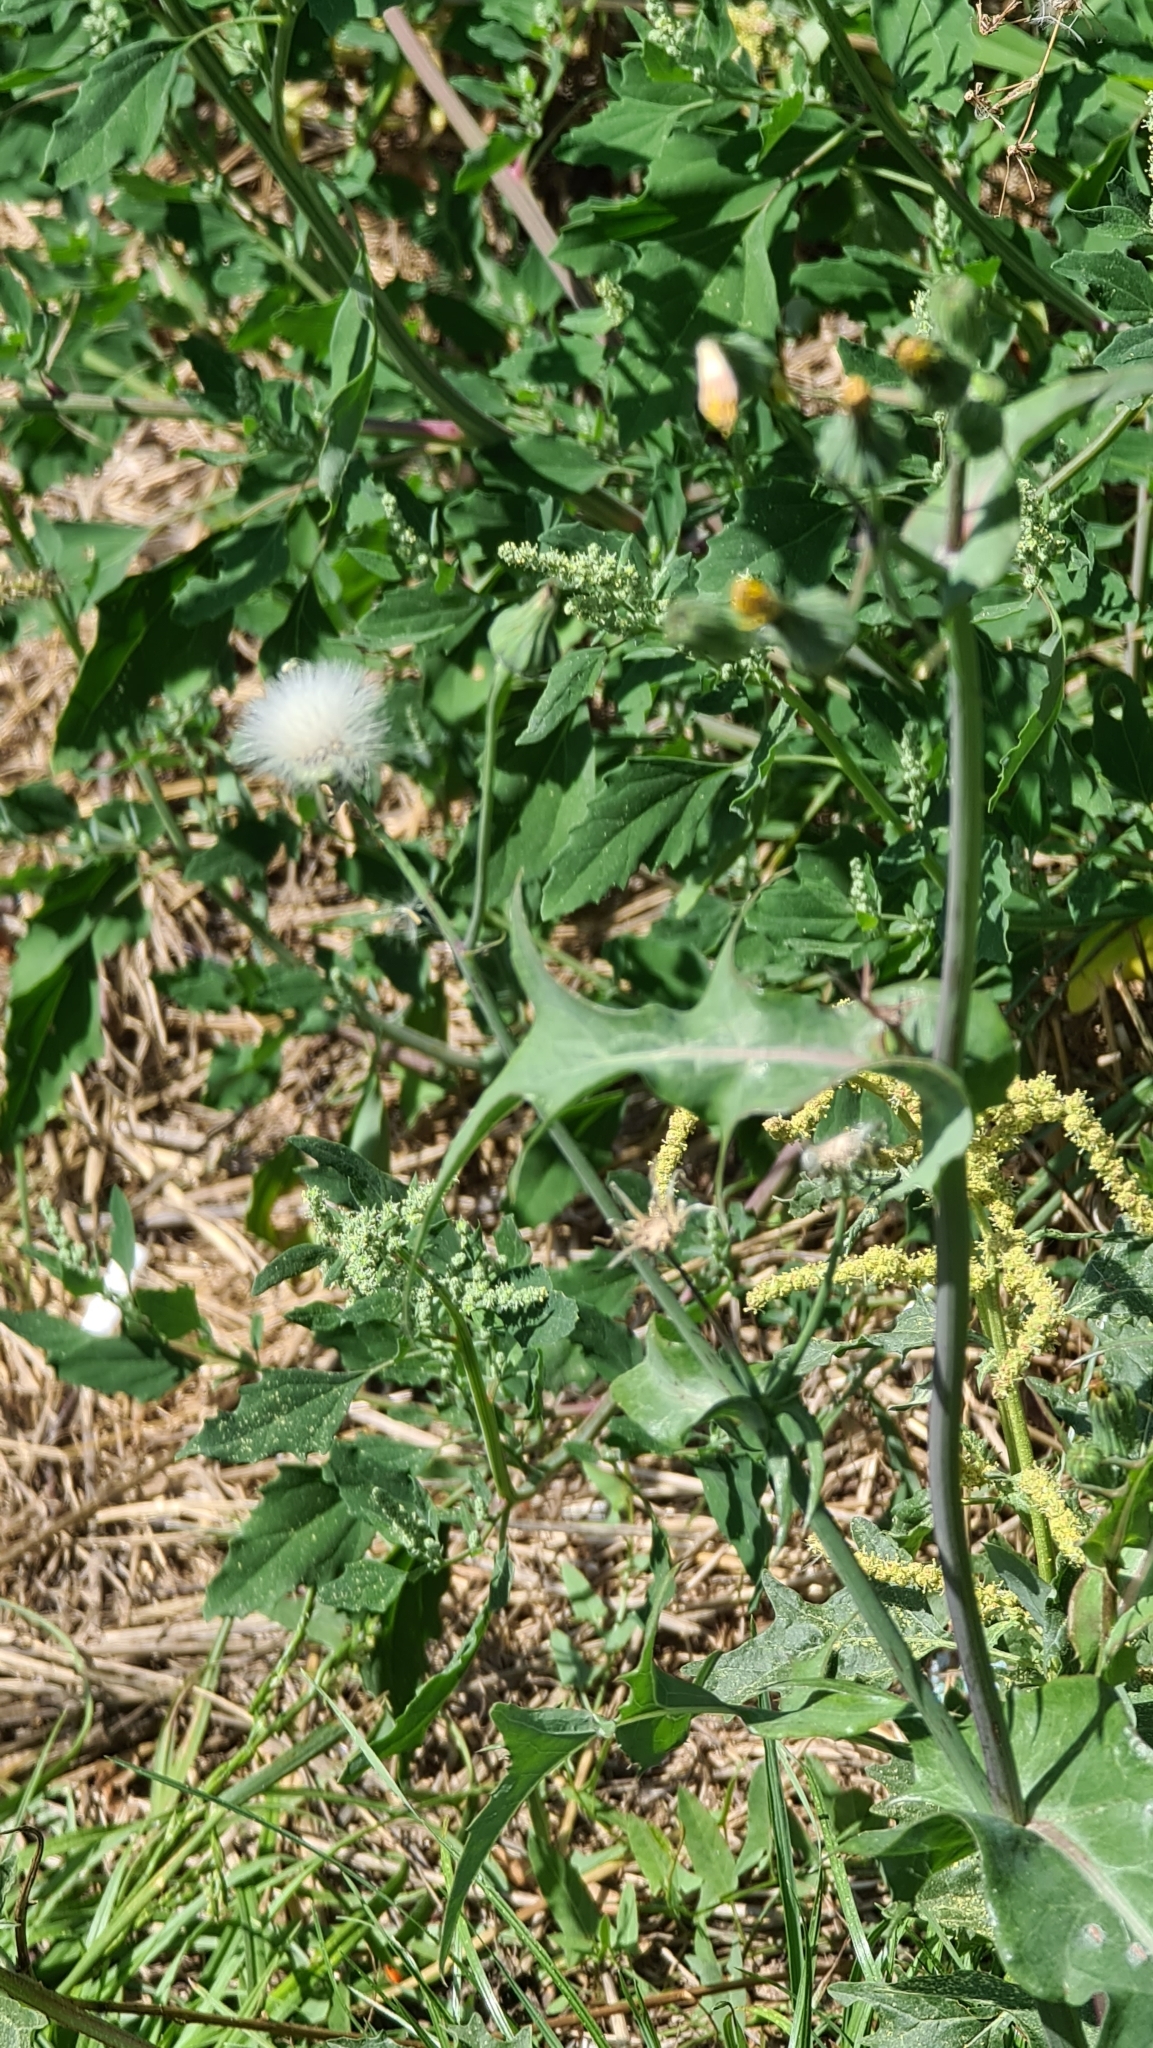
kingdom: Plantae
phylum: Tracheophyta
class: Magnoliopsida
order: Asterales
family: Asteraceae
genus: Sonchus
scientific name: Sonchus asper
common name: Prickly sow-thistle
